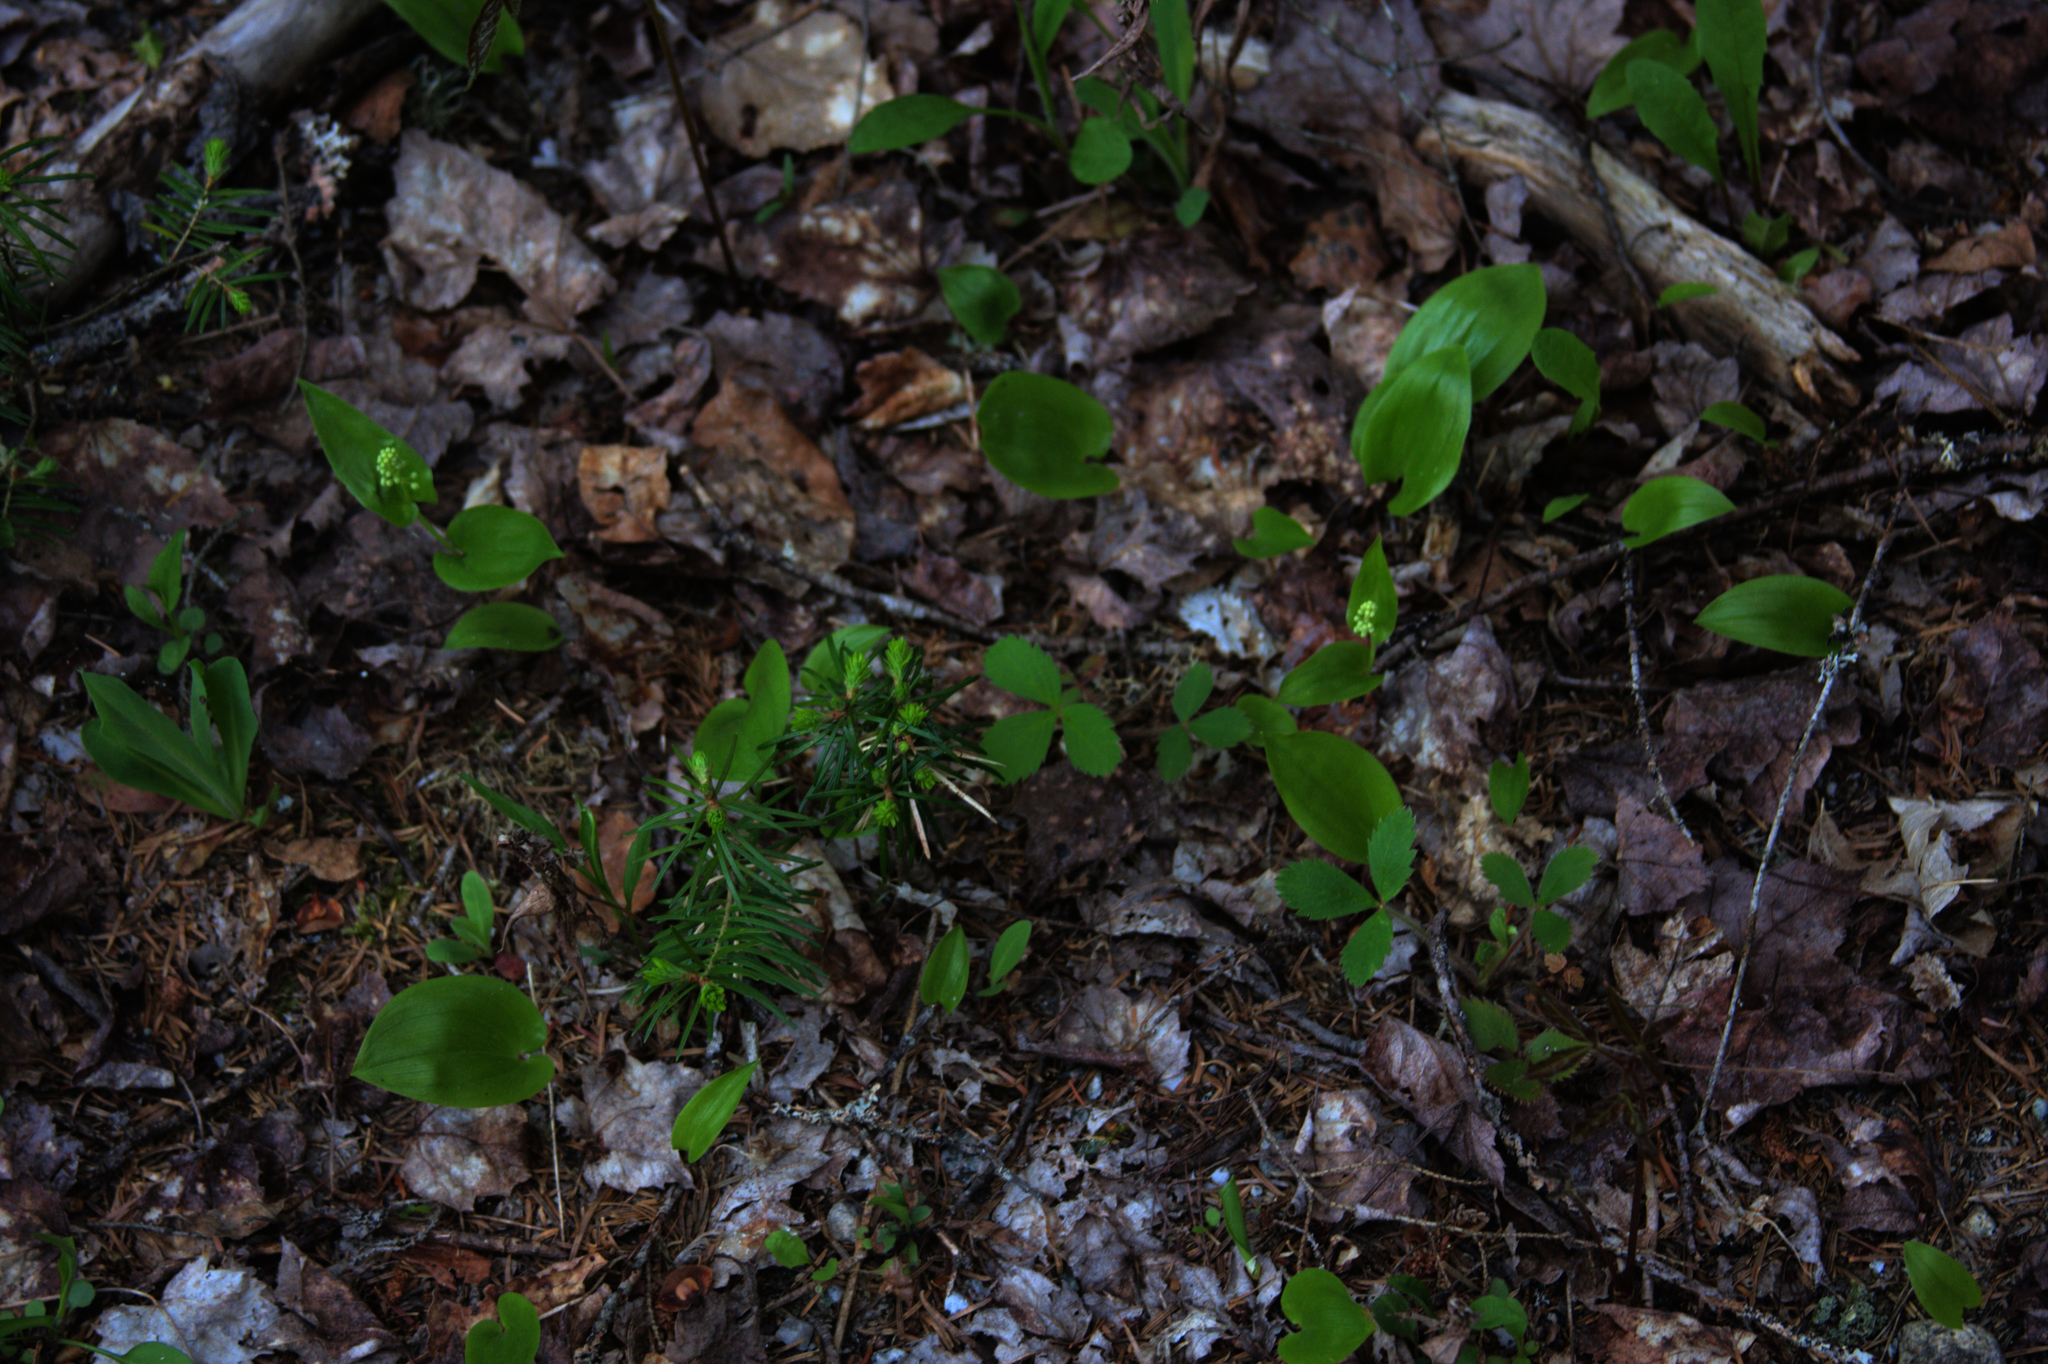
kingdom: Plantae
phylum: Tracheophyta
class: Liliopsida
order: Asparagales
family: Asparagaceae
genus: Maianthemum
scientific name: Maianthemum canadense
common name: False lily-of-the-valley
